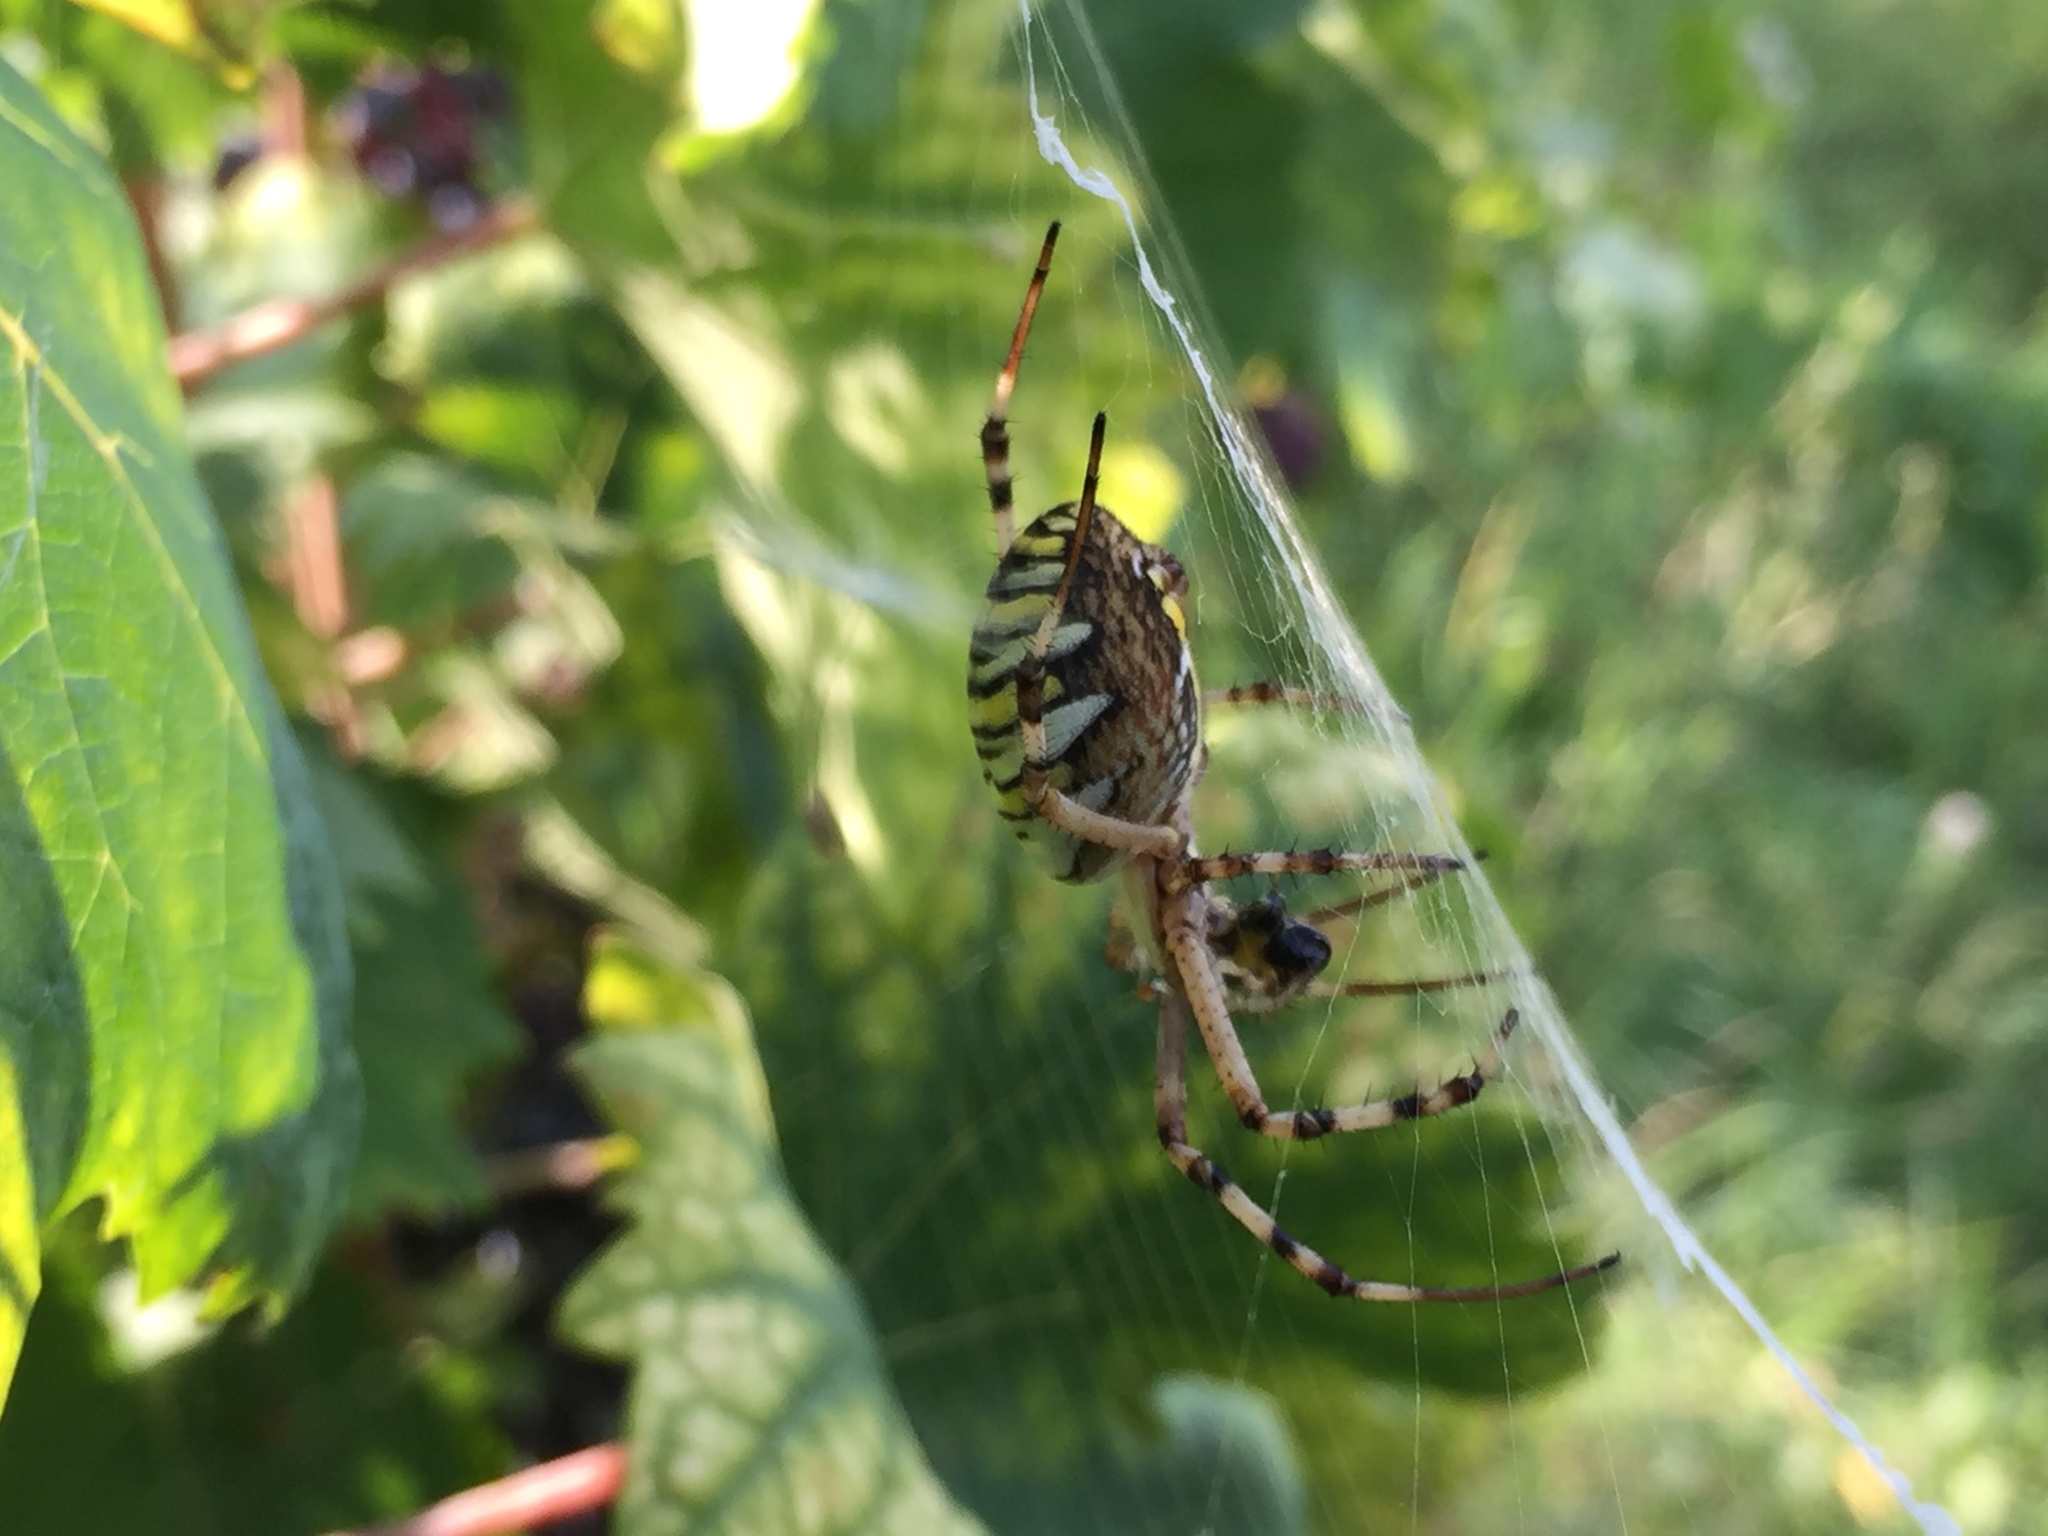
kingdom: Animalia
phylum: Arthropoda
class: Arachnida
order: Araneae
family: Araneidae
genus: Argiope
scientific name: Argiope bruennichi
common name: Wasp spider
